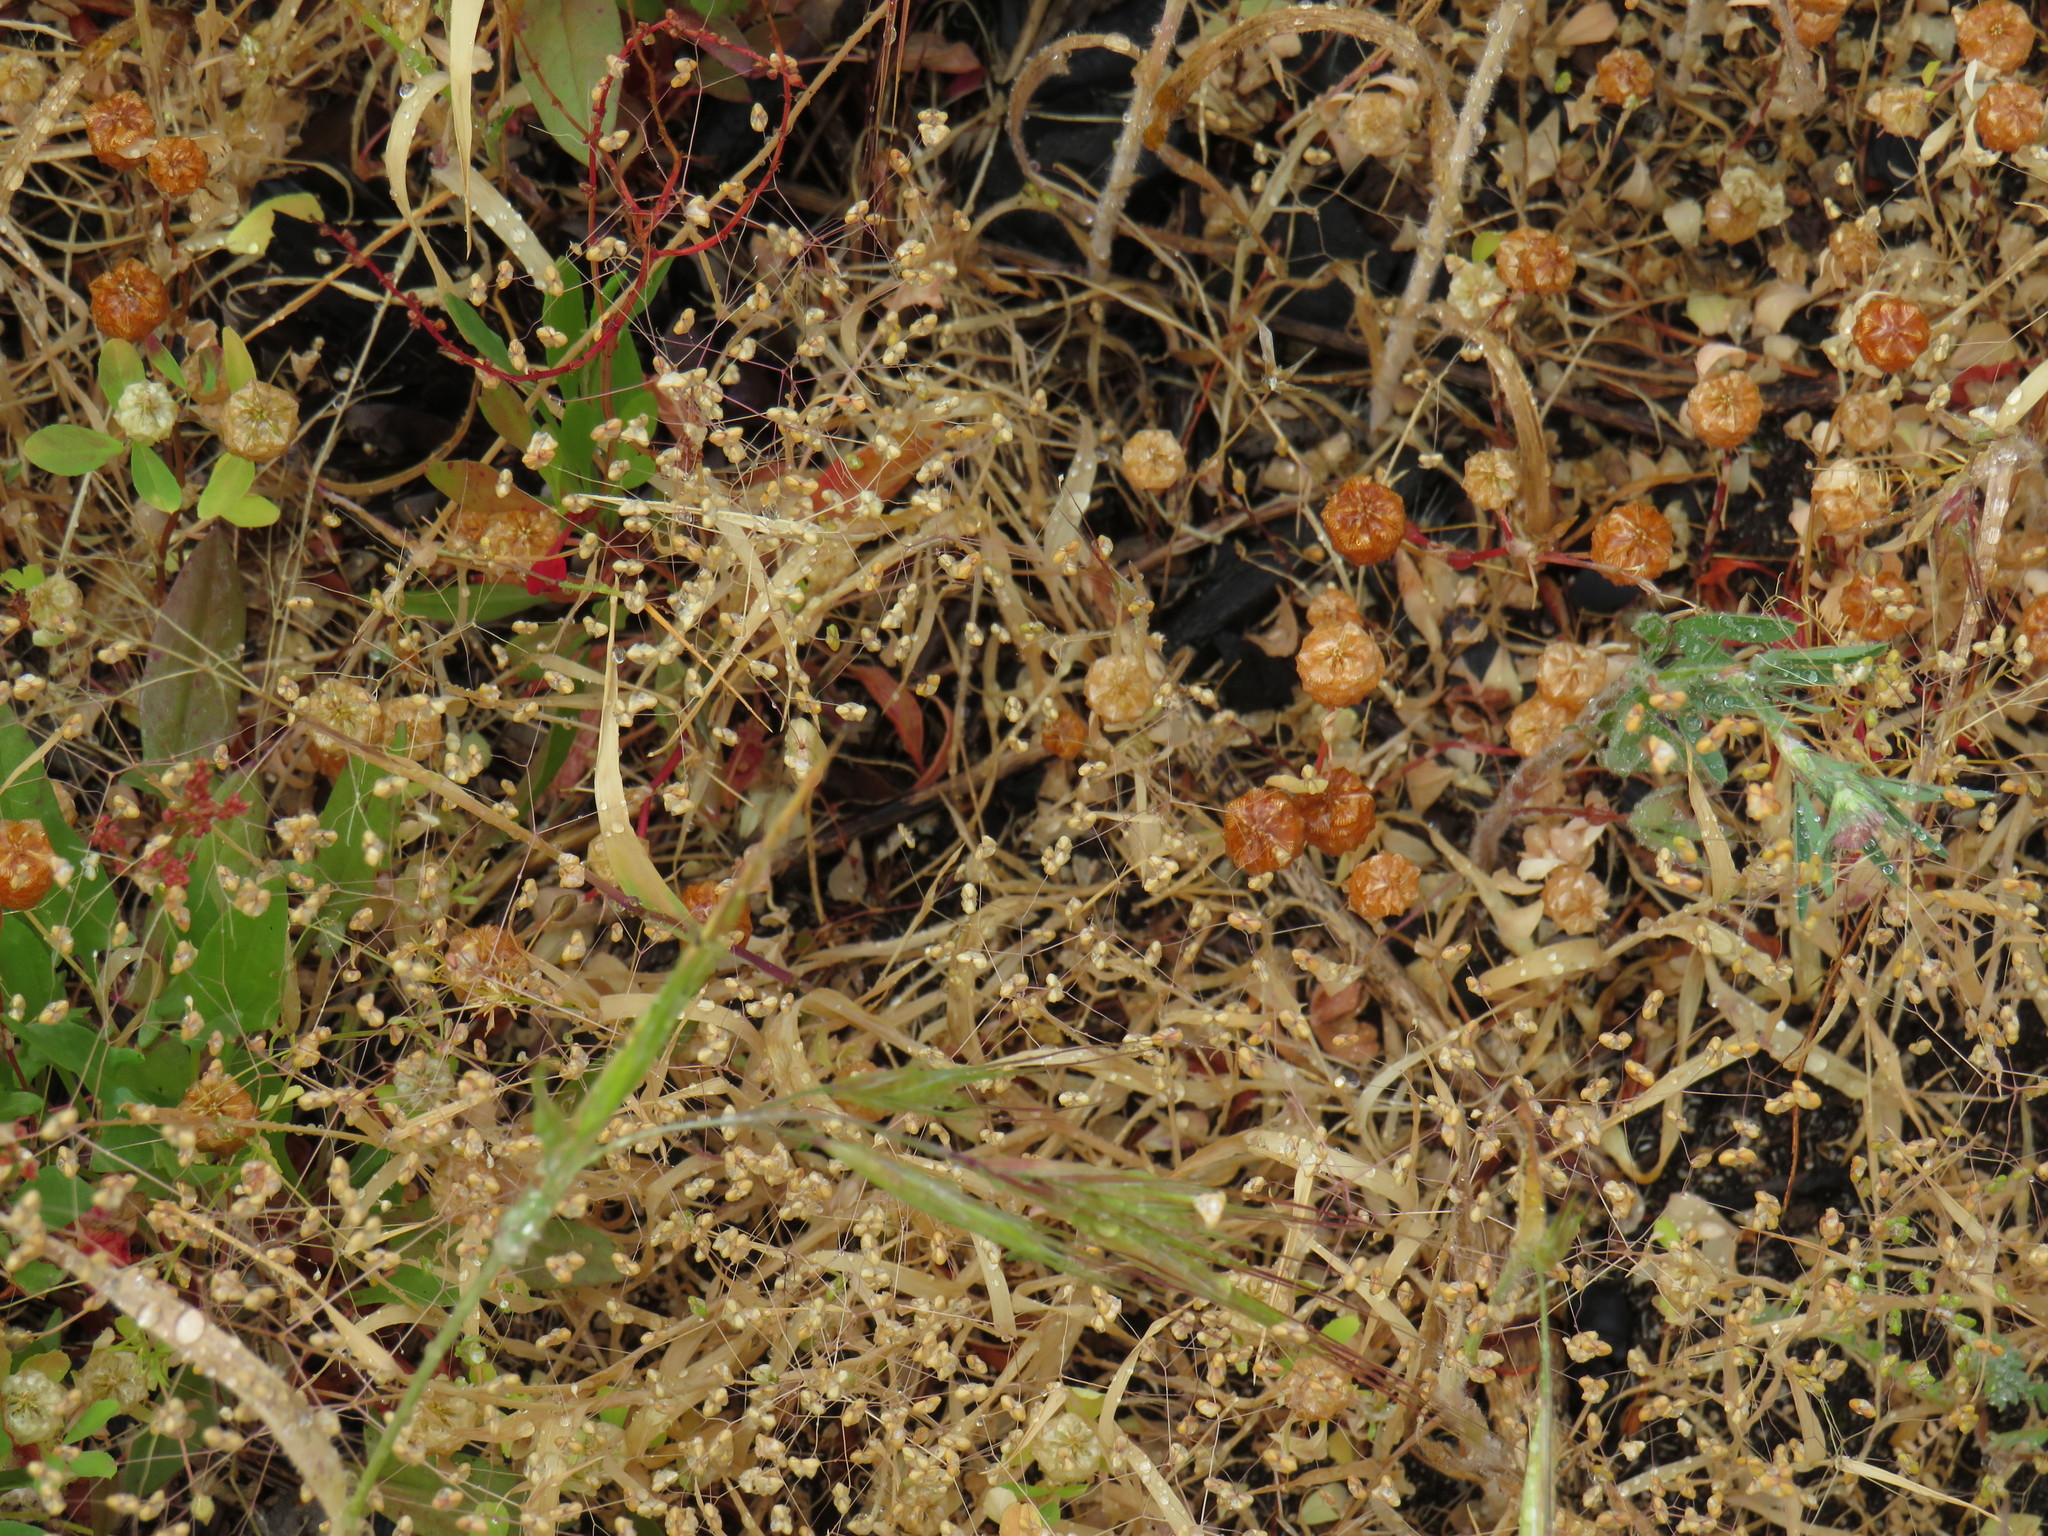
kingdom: Plantae
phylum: Tracheophyta
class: Liliopsida
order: Poales
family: Poaceae
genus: Briza
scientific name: Briza minor
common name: Lesser quaking-grass
